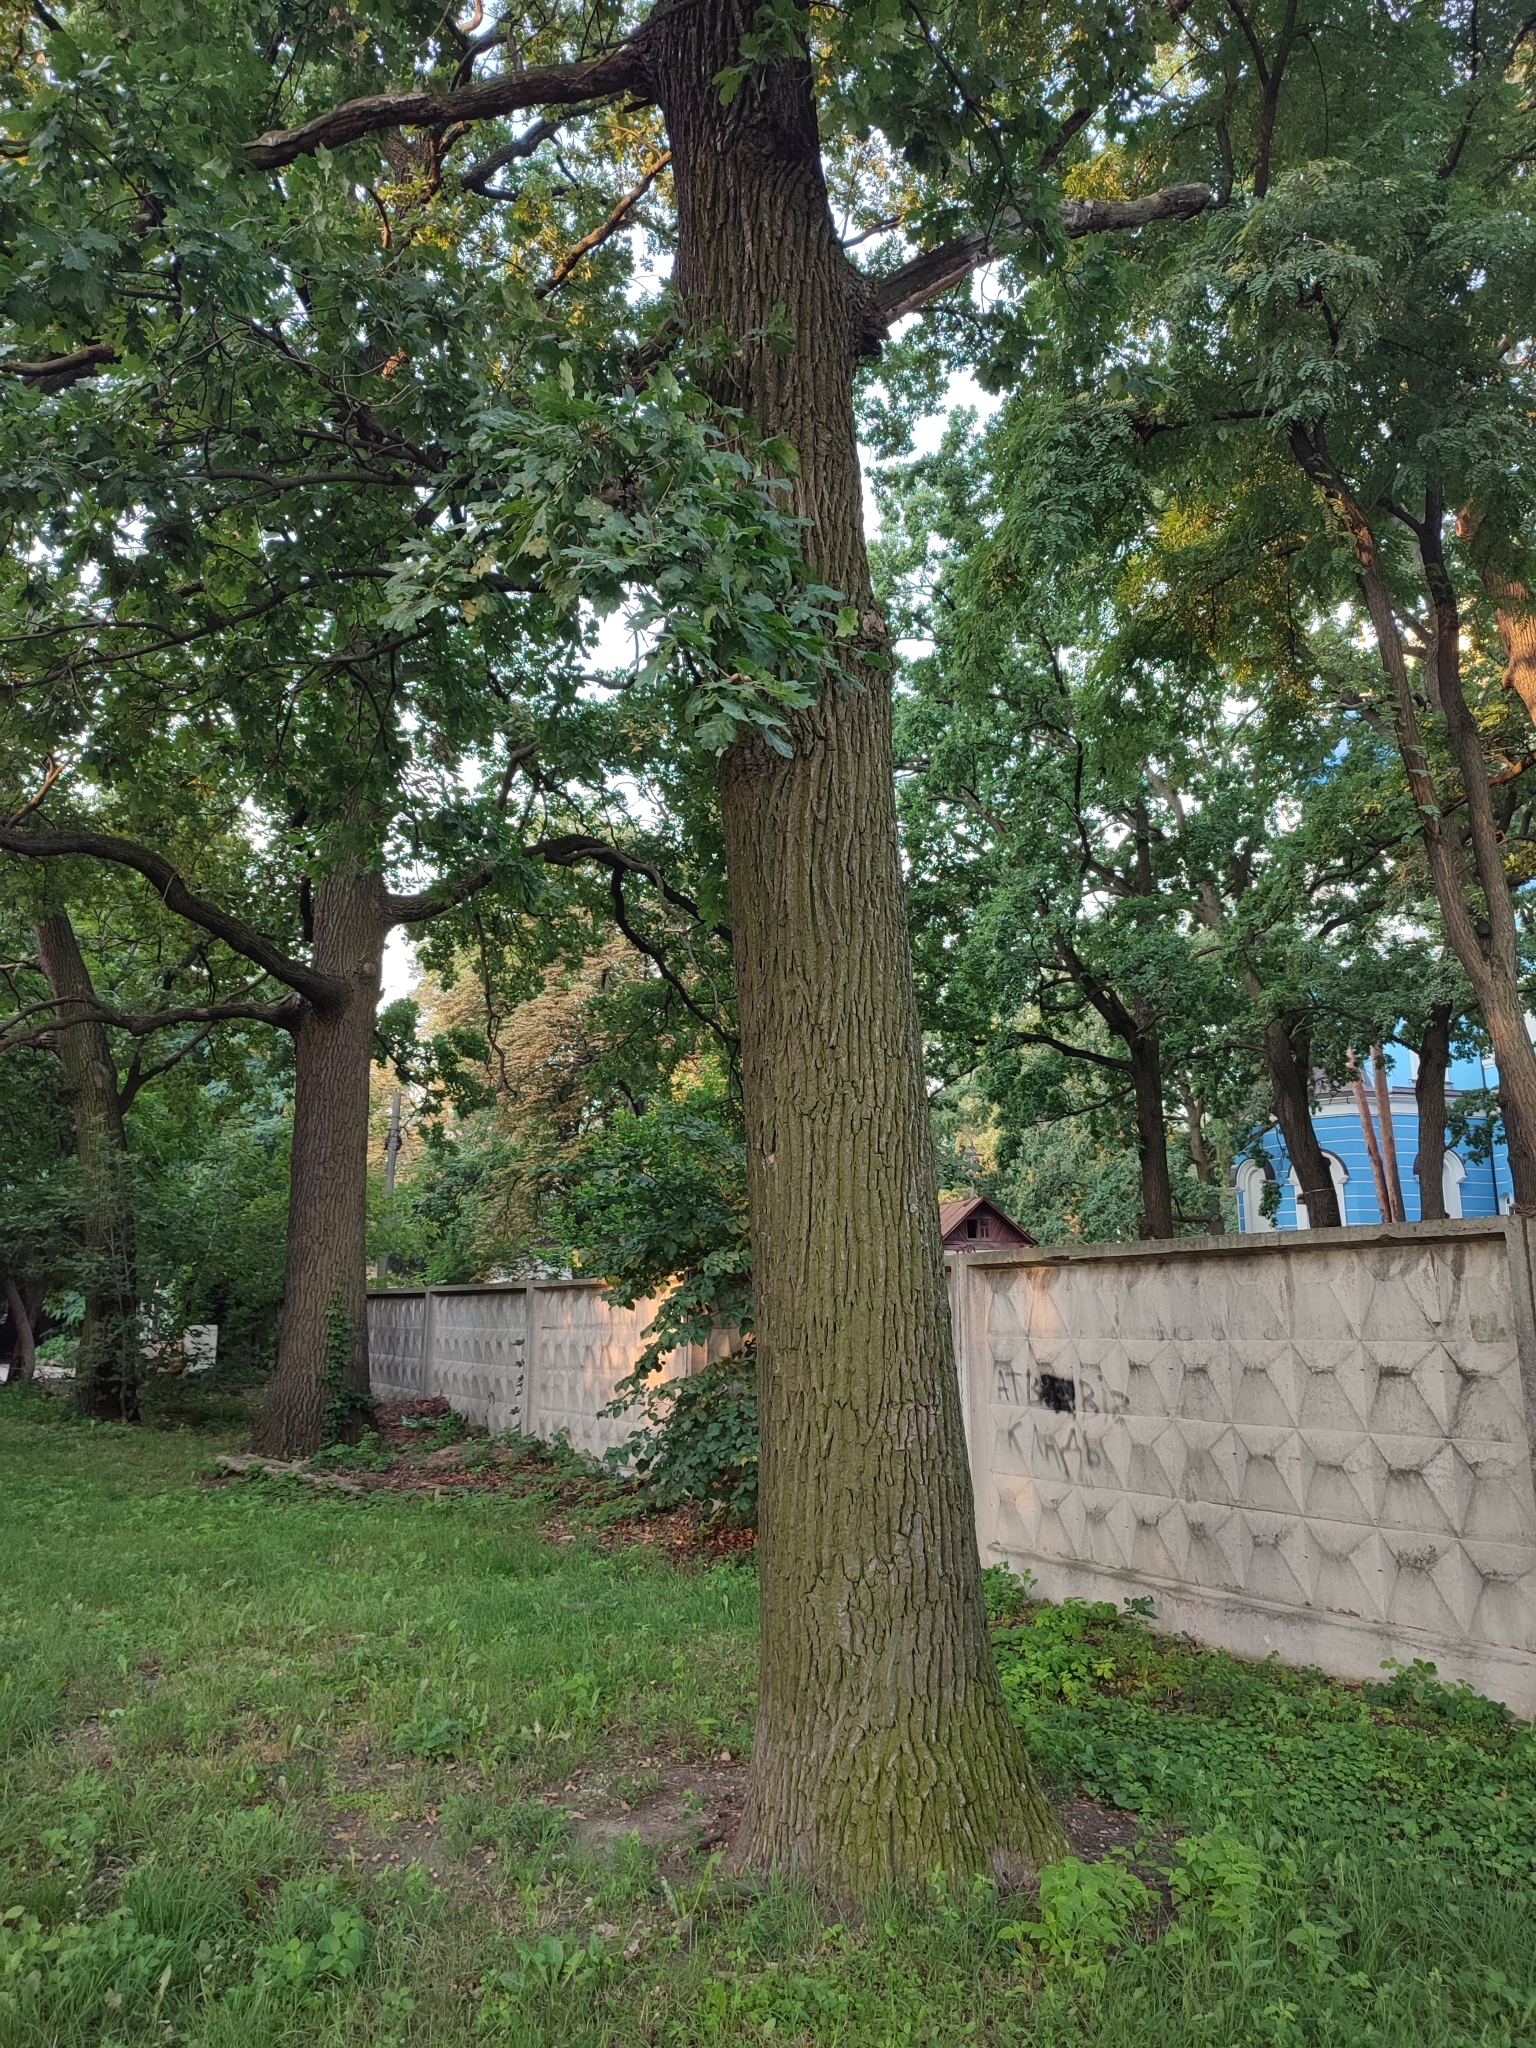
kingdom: Plantae
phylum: Tracheophyta
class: Magnoliopsida
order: Fagales
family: Fagaceae
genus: Quercus
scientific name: Quercus robur
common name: Pedunculate oak
